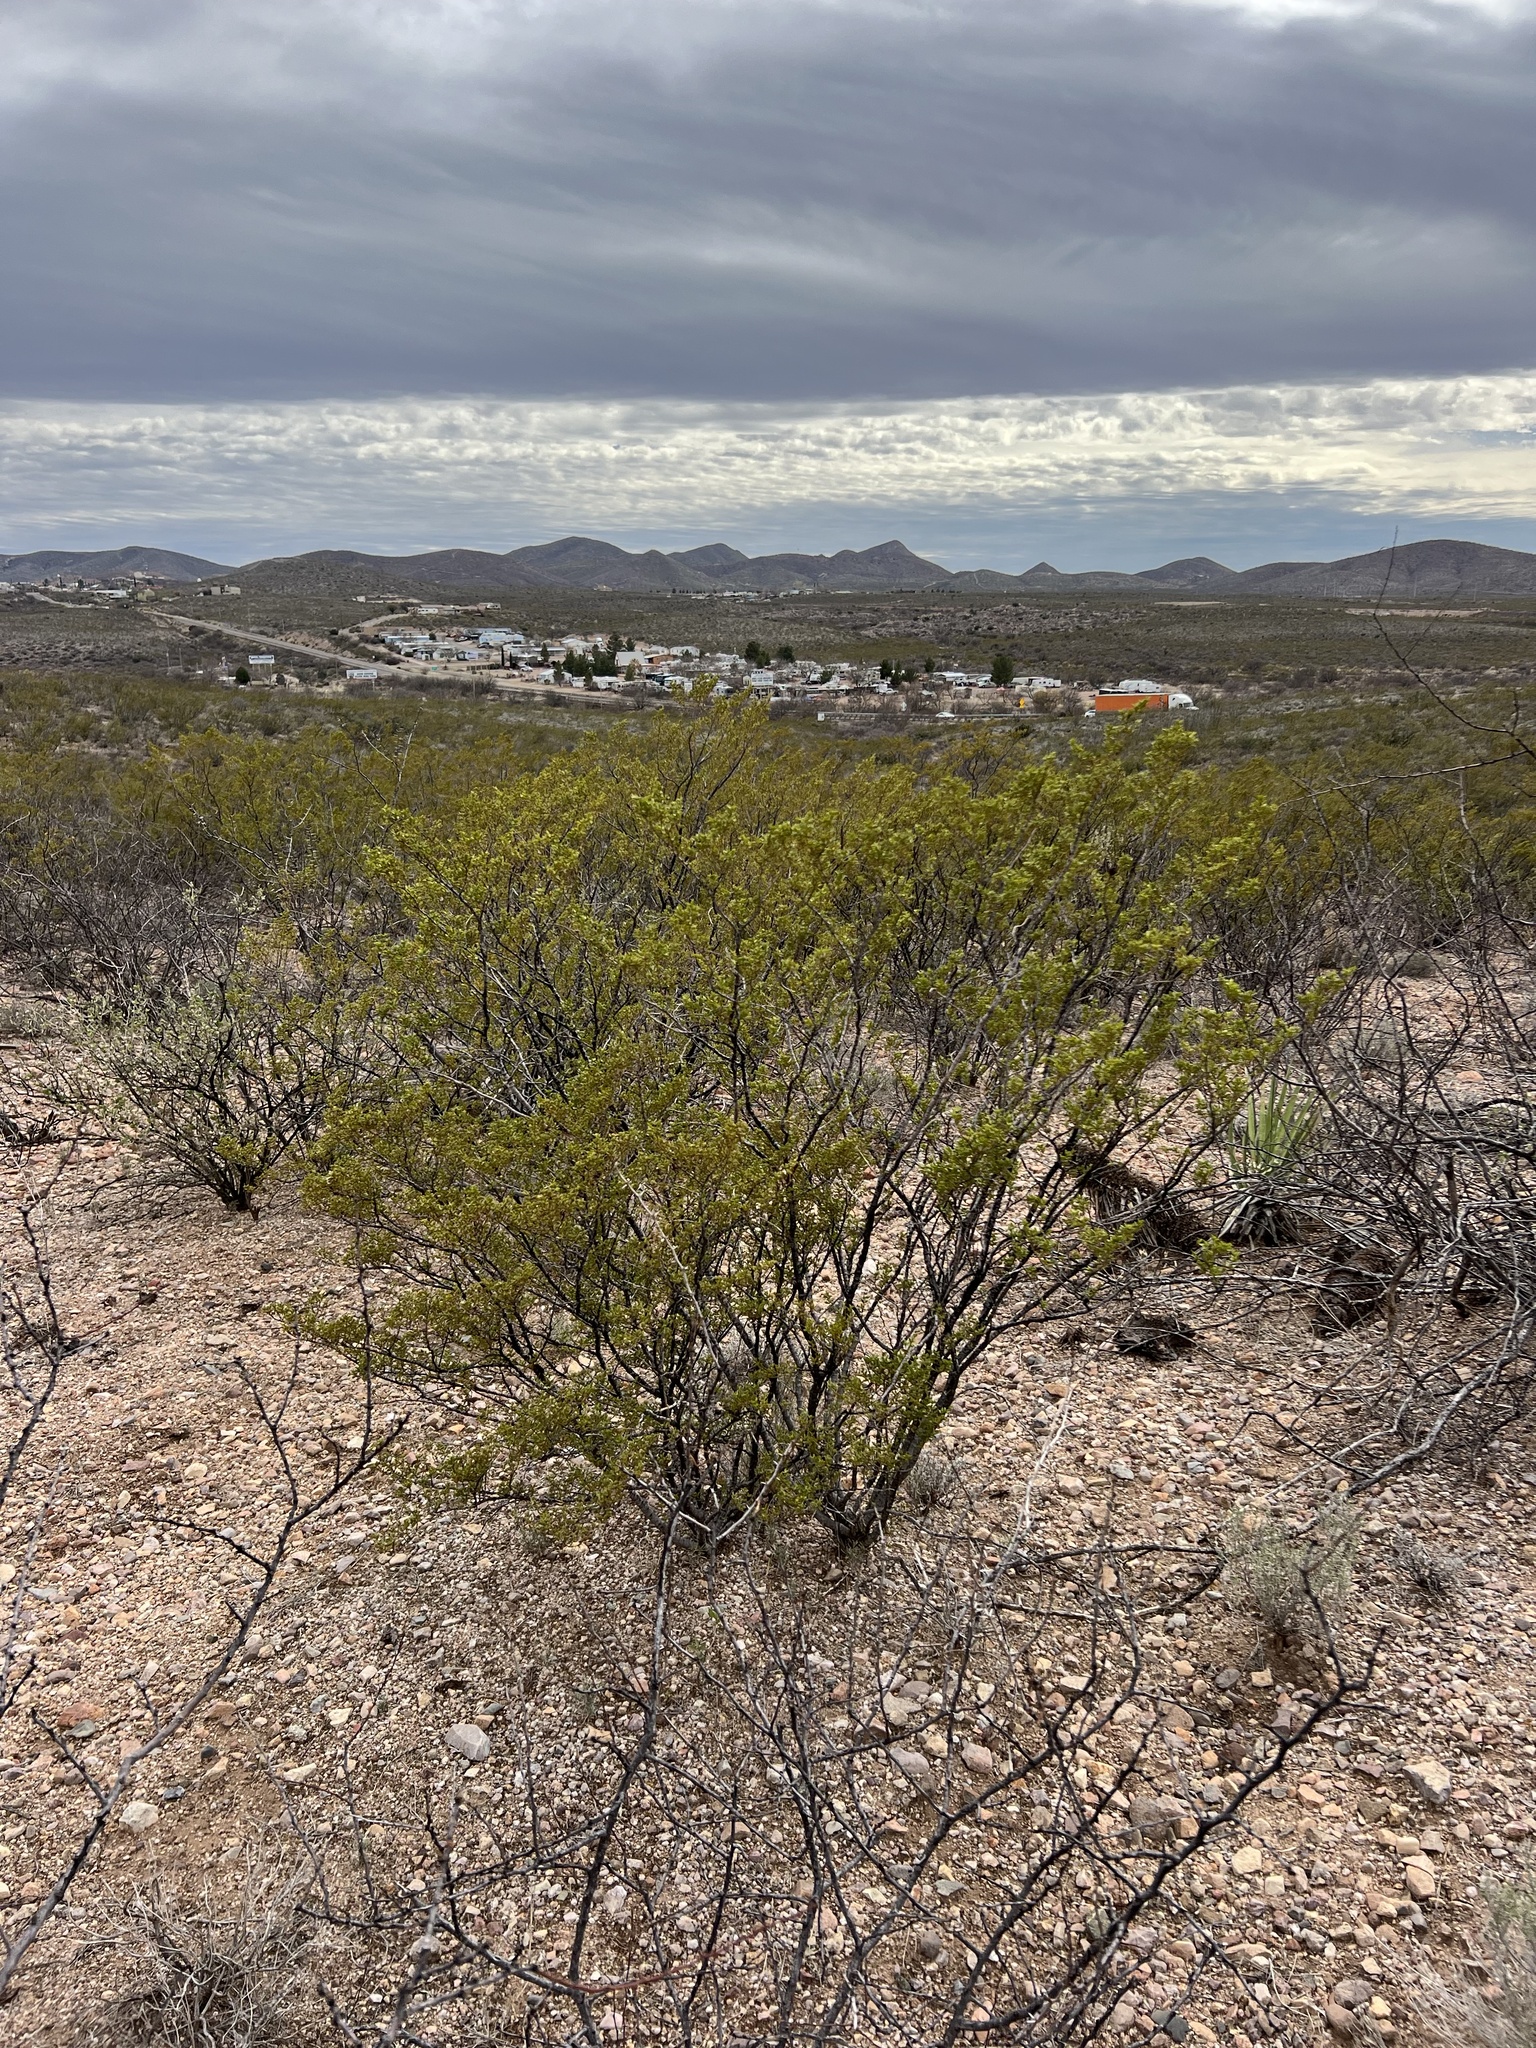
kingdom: Plantae
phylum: Tracheophyta
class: Magnoliopsida
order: Zygophyllales
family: Zygophyllaceae
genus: Larrea
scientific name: Larrea tridentata
